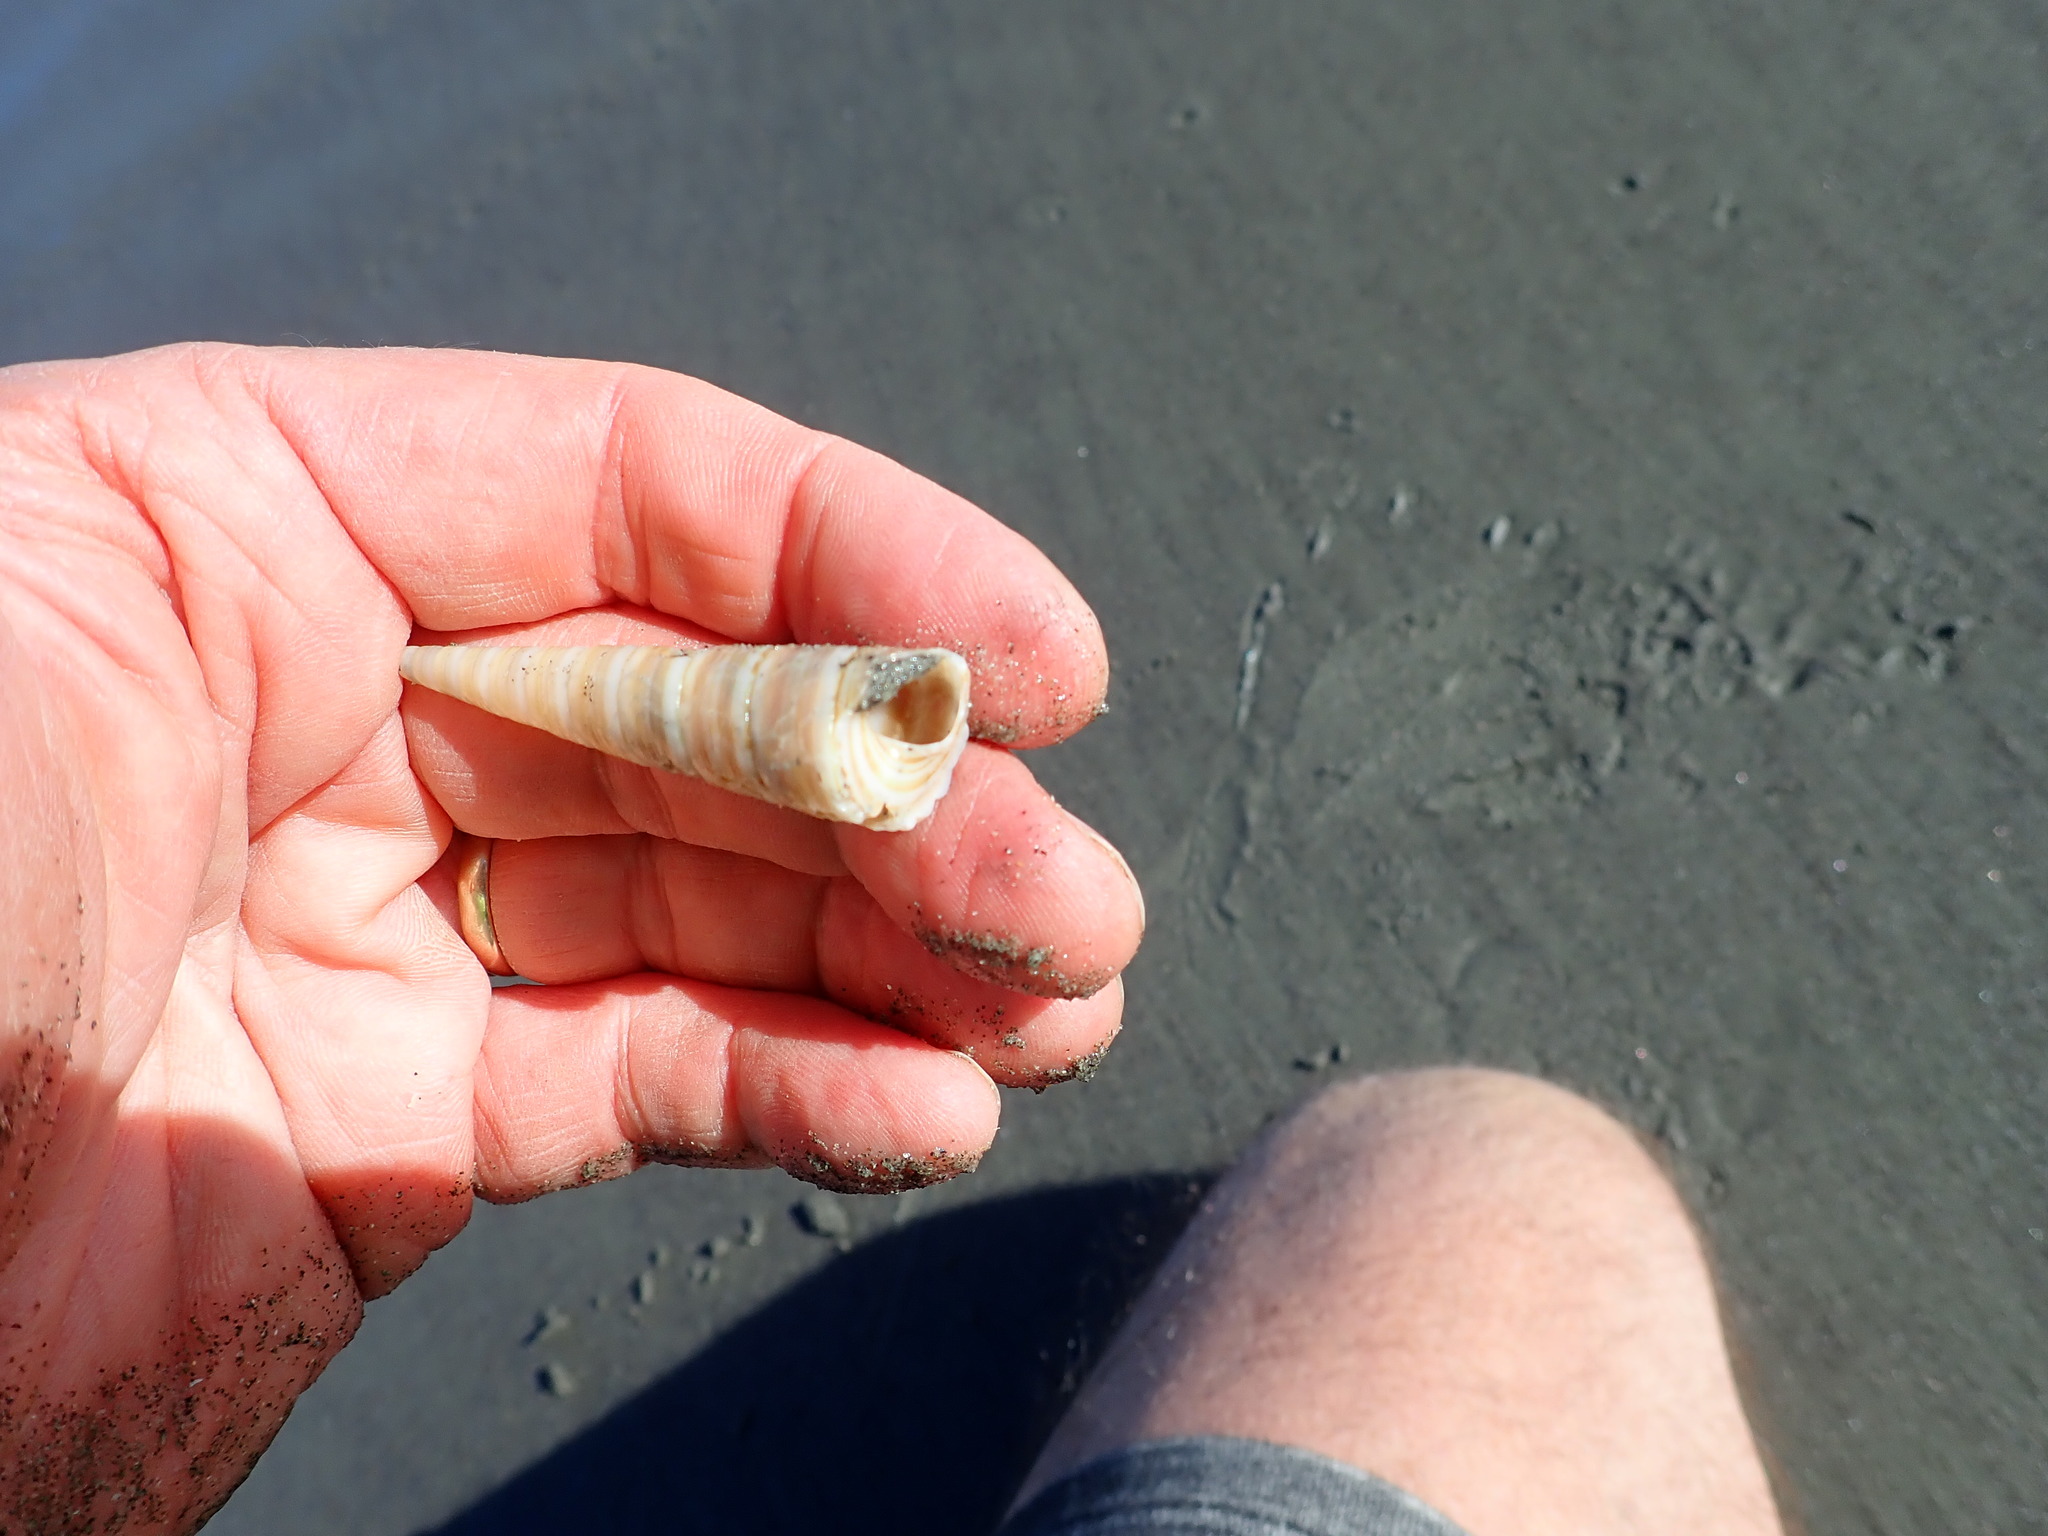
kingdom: Animalia
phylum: Mollusca
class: Gastropoda
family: Turritellidae
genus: Zeacolpus
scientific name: Zeacolpus vittatus
